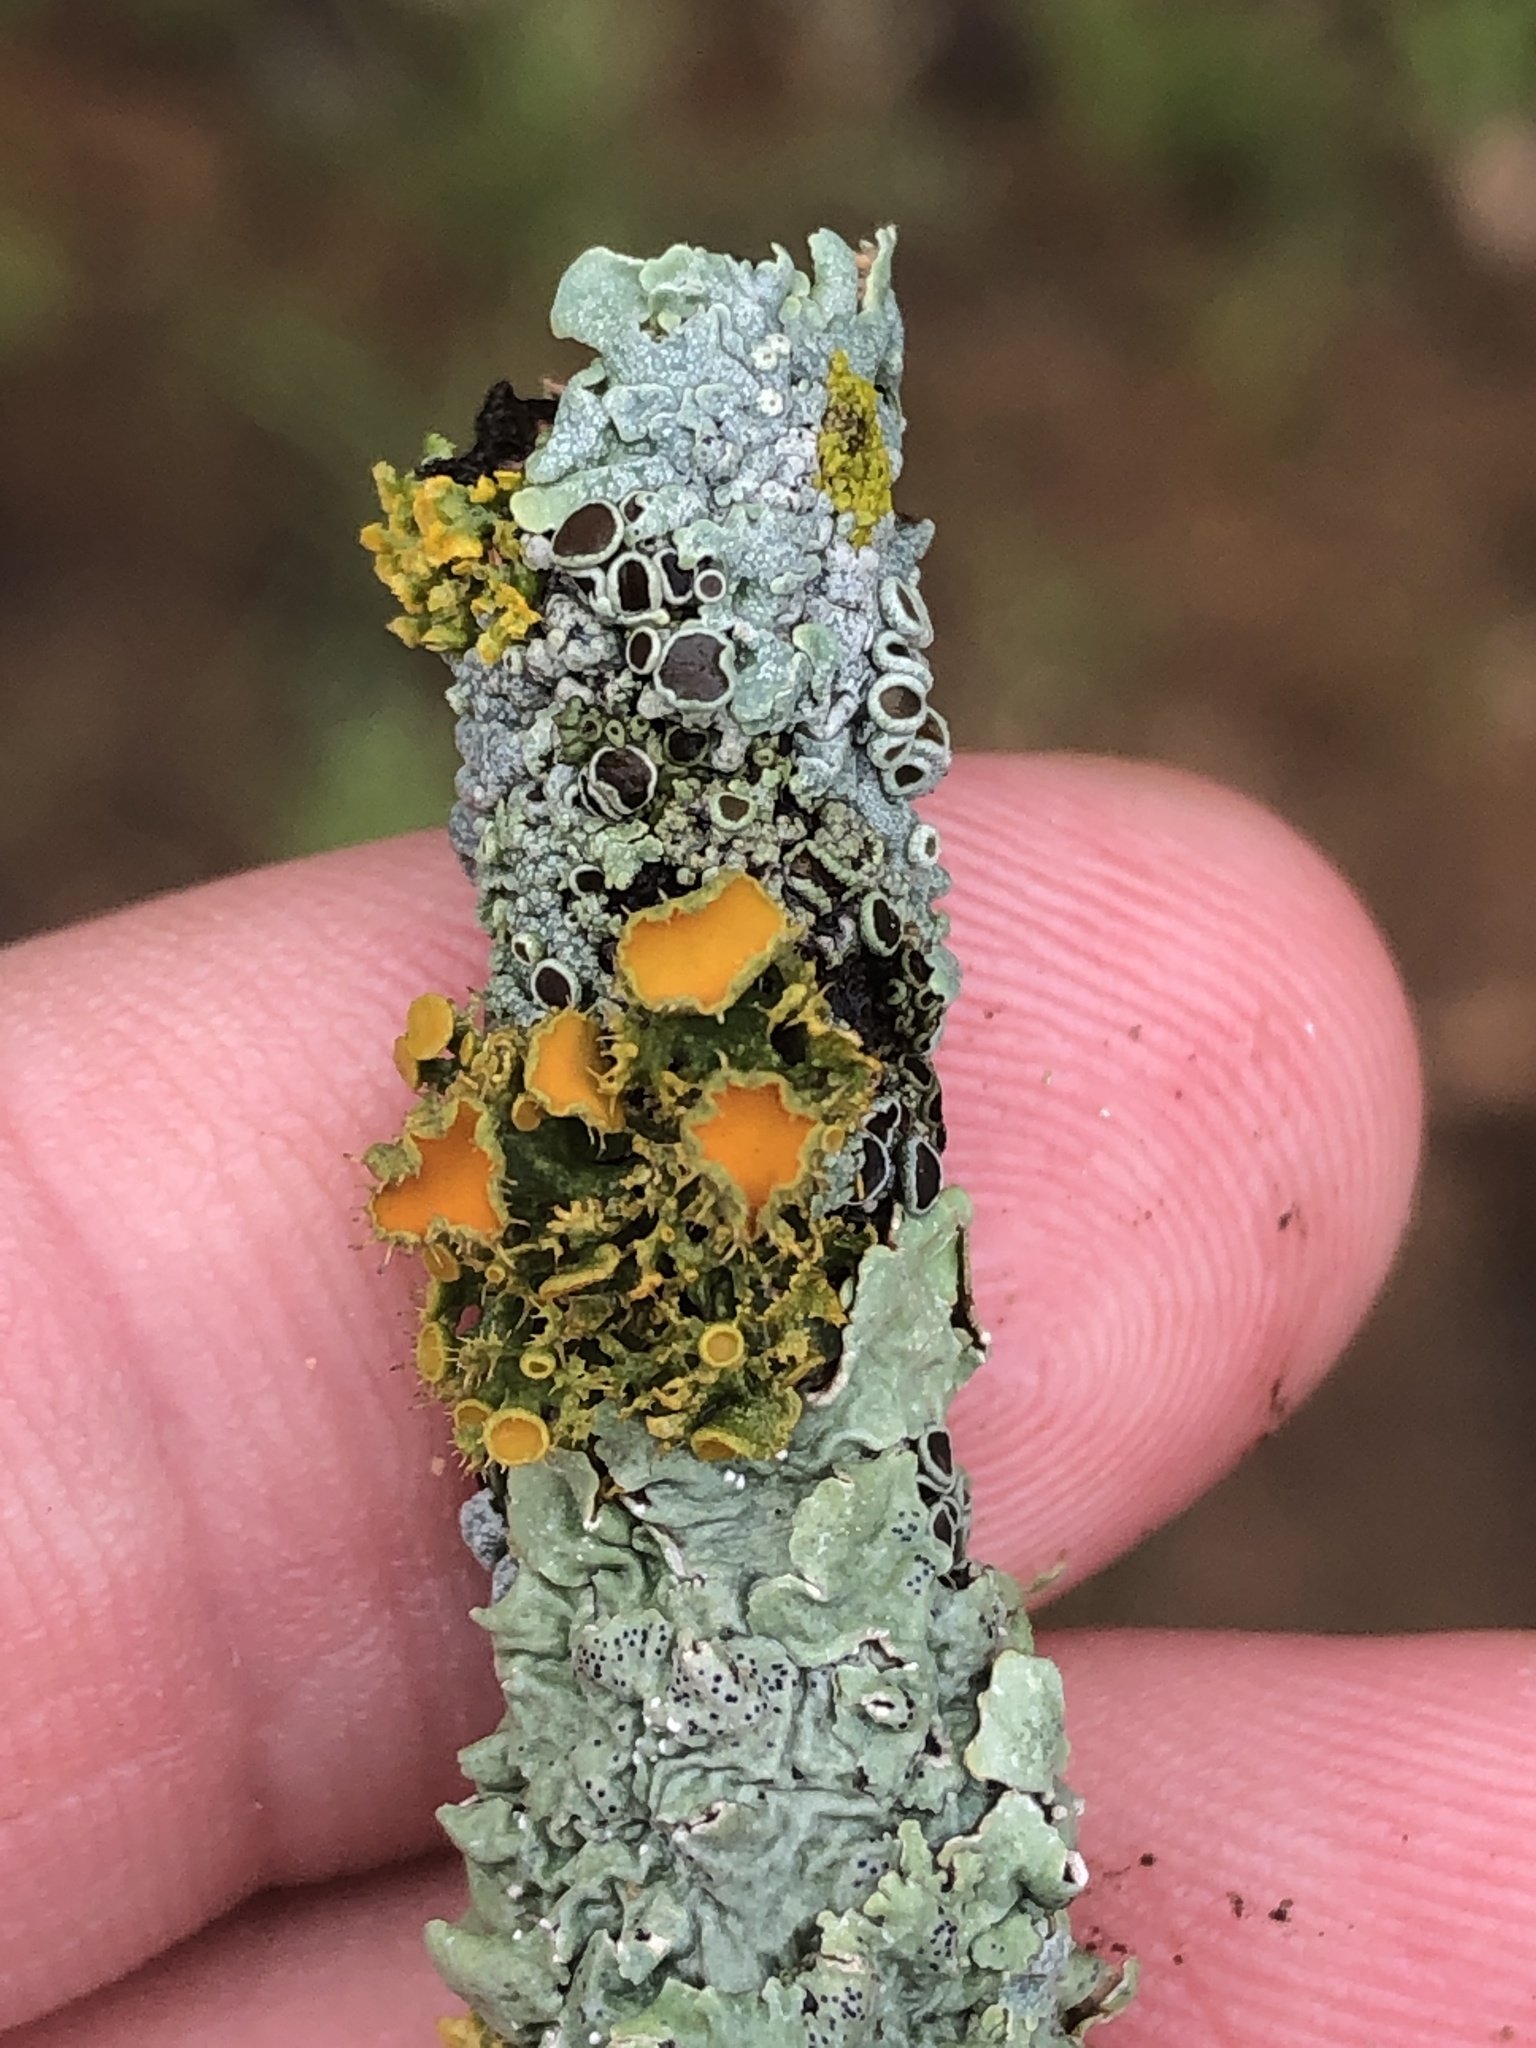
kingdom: Fungi
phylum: Ascomycota
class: Lecanoromycetes
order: Teloschistales
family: Teloschistaceae
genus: Niorma
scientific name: Niorma chrysophthalma
